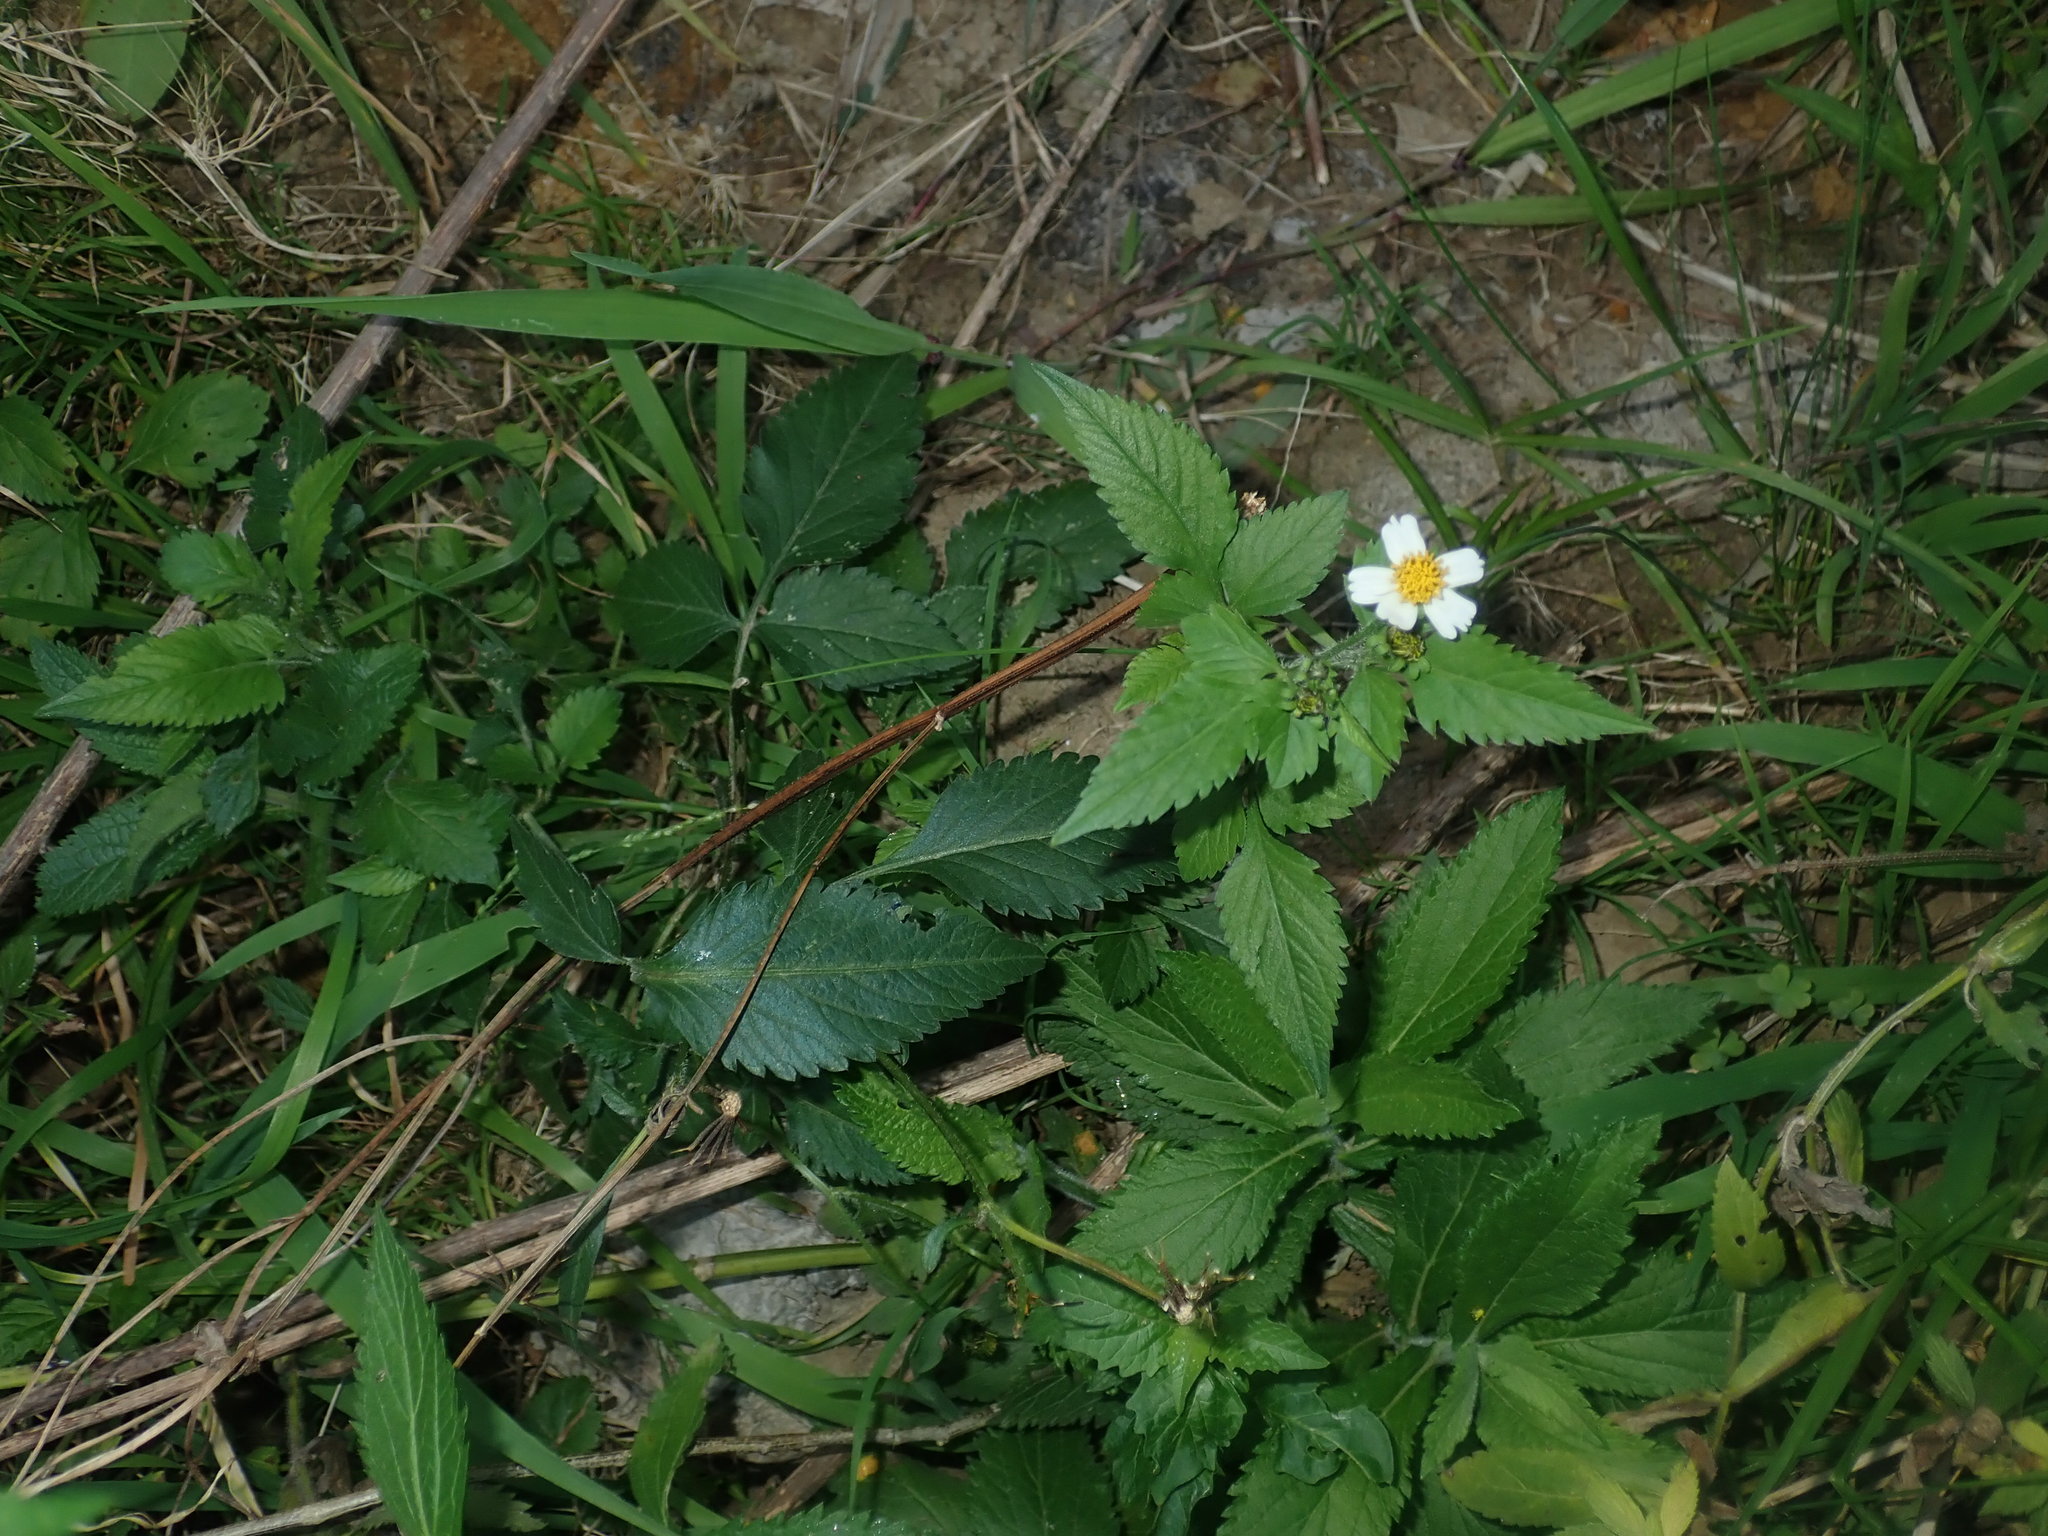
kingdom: Plantae
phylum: Tracheophyta
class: Magnoliopsida
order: Asterales
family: Asteraceae
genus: Bidens
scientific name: Bidens alba
